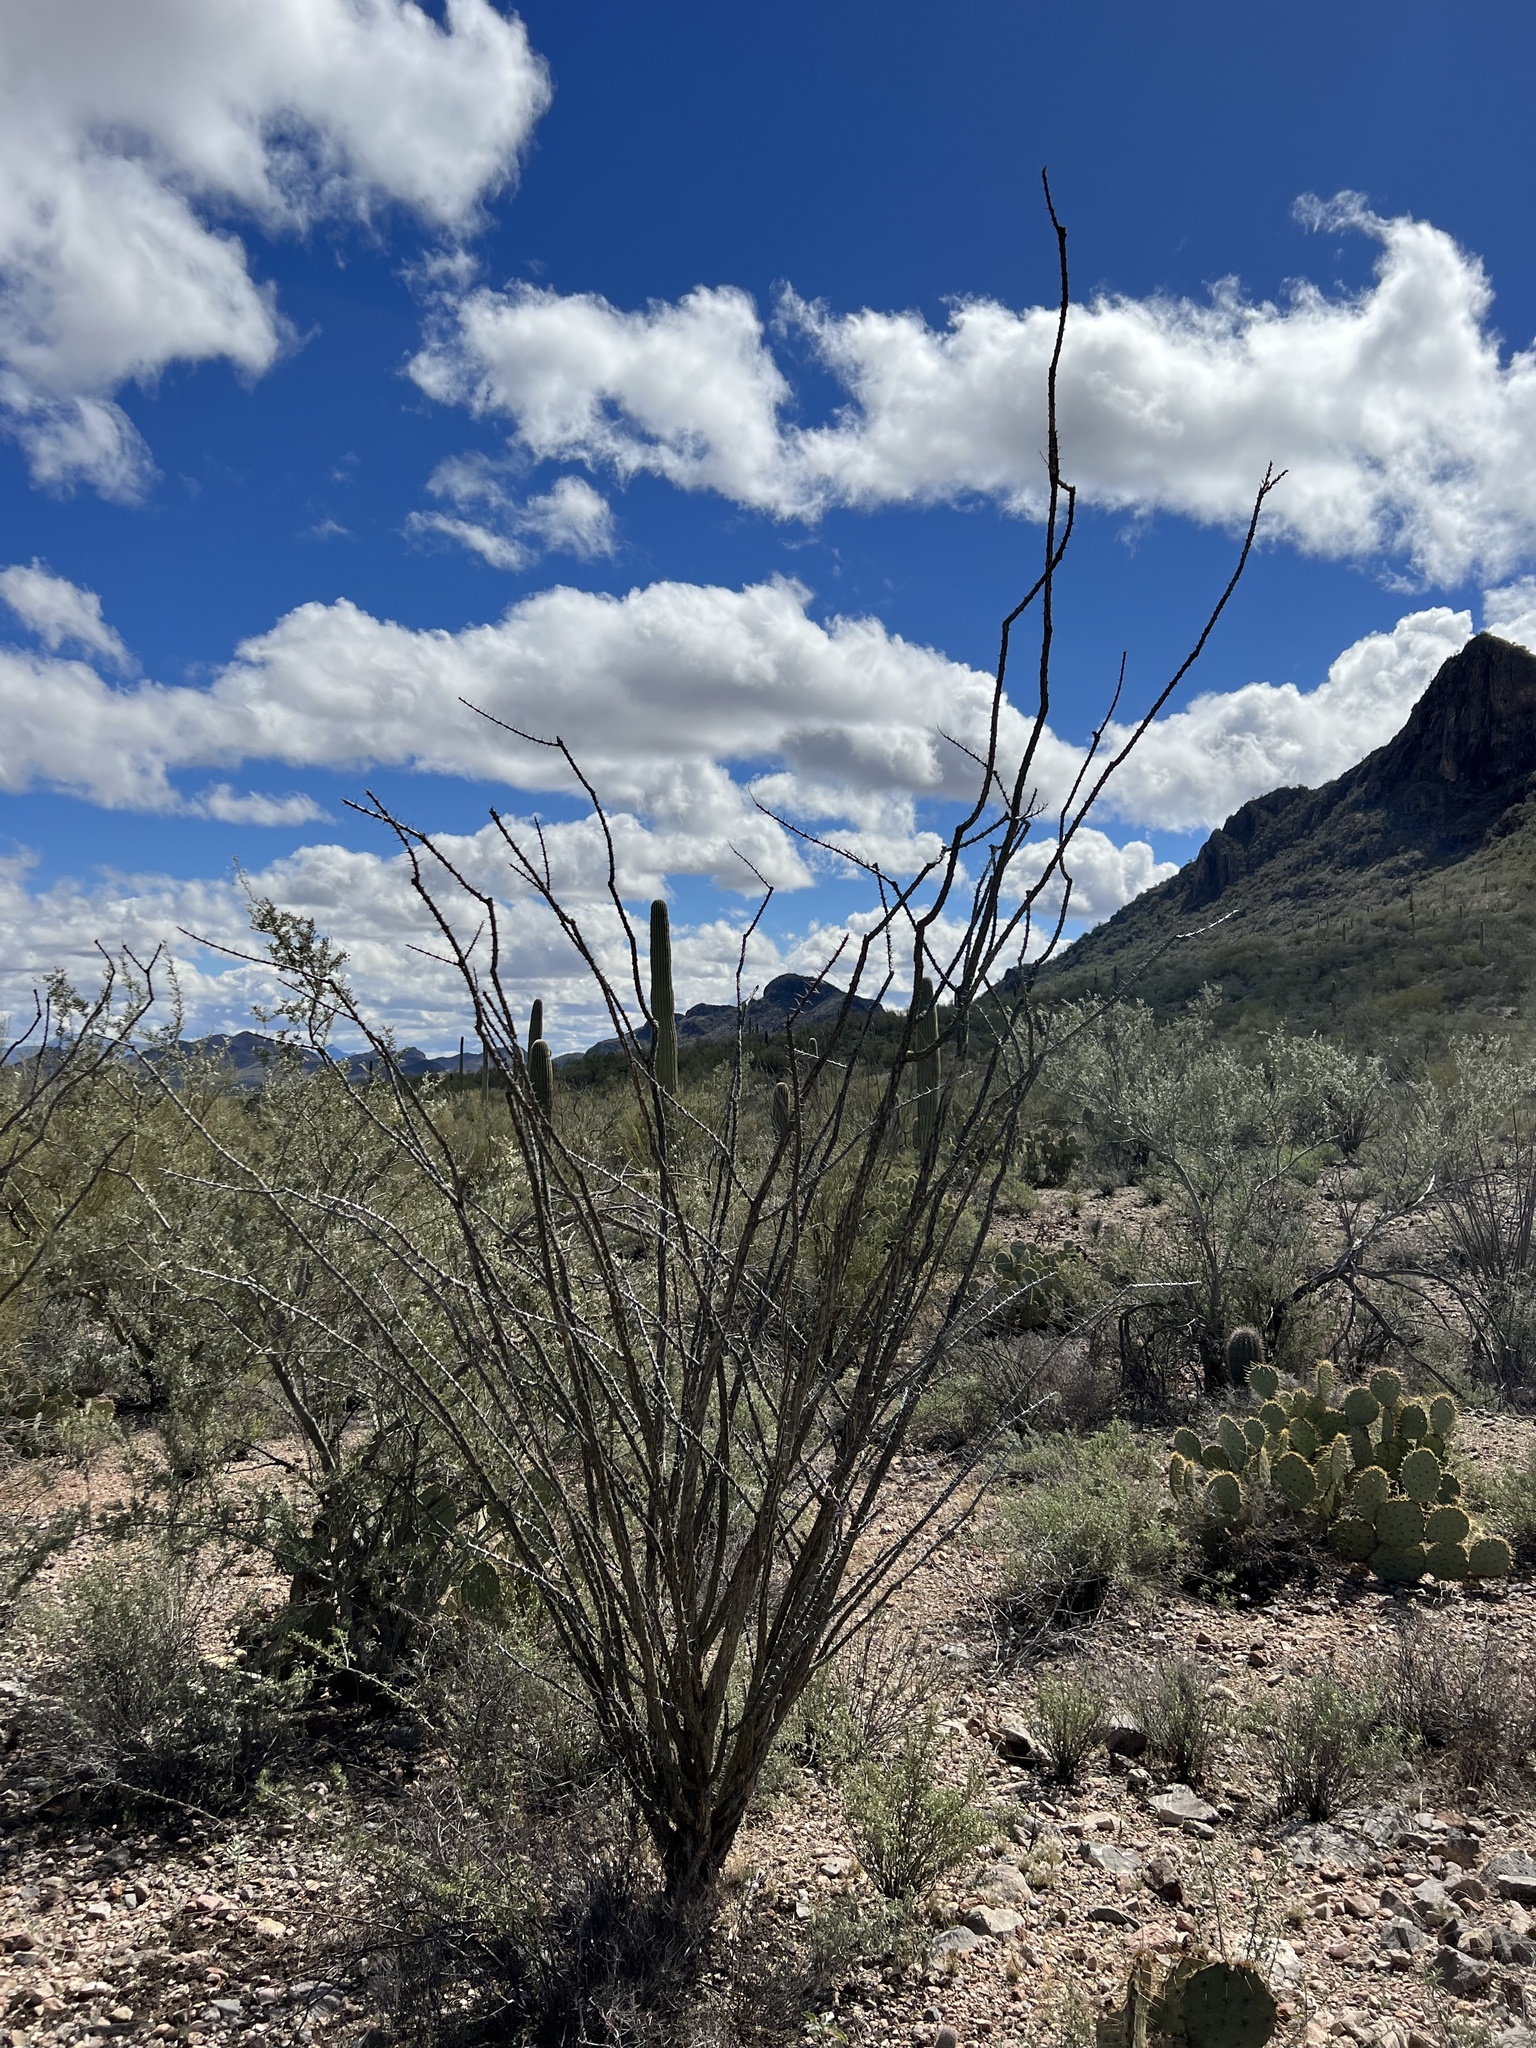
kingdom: Plantae
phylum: Tracheophyta
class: Magnoliopsida
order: Ericales
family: Fouquieriaceae
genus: Fouquieria
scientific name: Fouquieria splendens
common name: Vine-cactus
